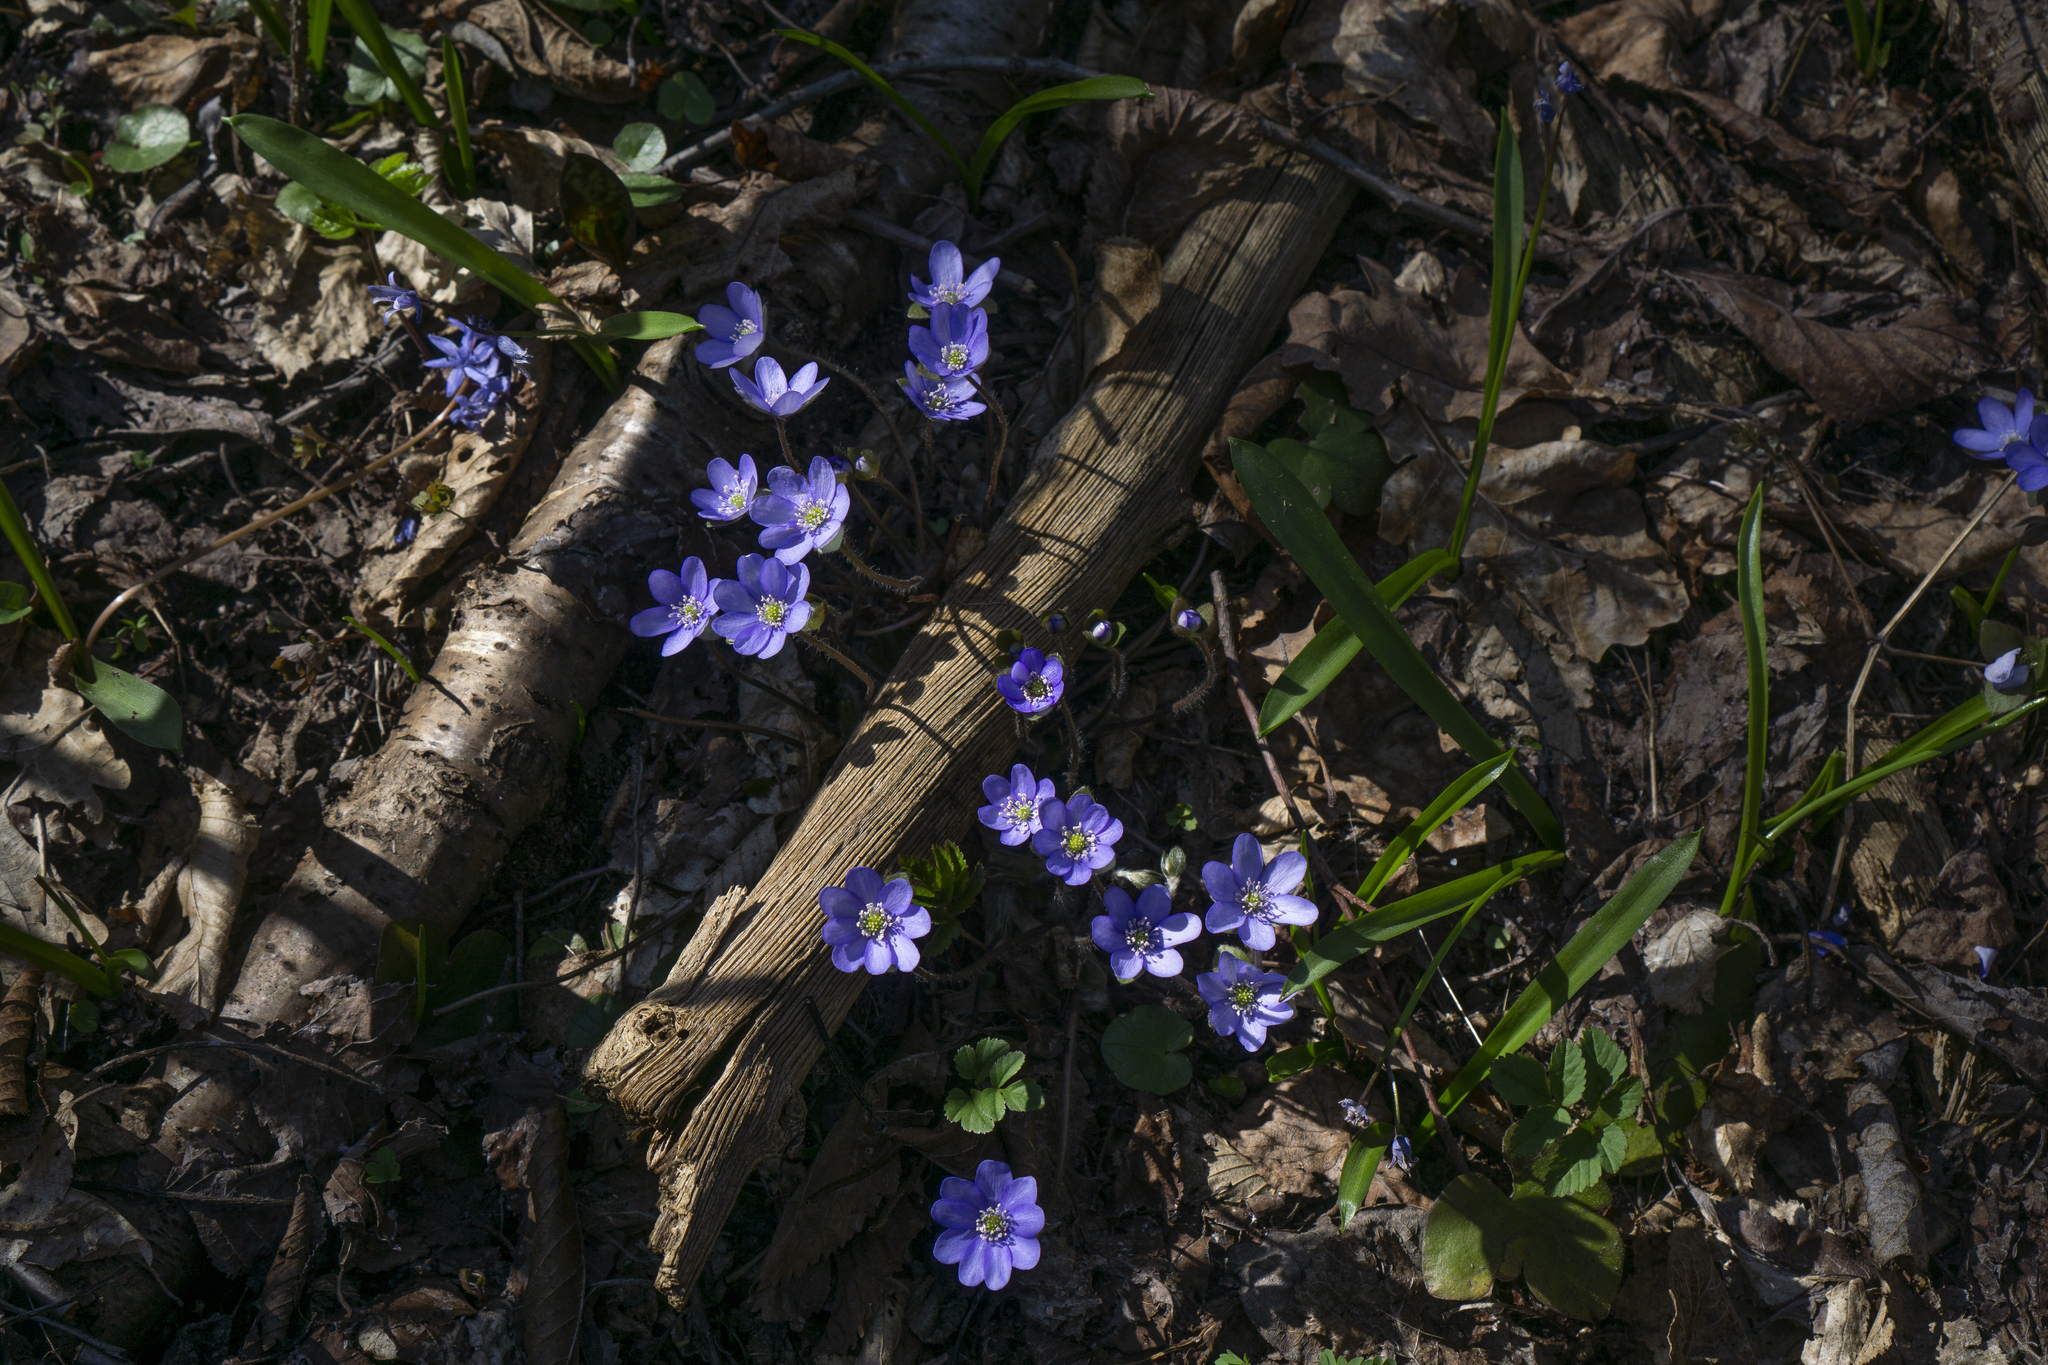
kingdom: Plantae
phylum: Tracheophyta
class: Magnoliopsida
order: Ranunculales
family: Ranunculaceae
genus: Hepatica
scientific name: Hepatica nobilis
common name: Liverleaf
